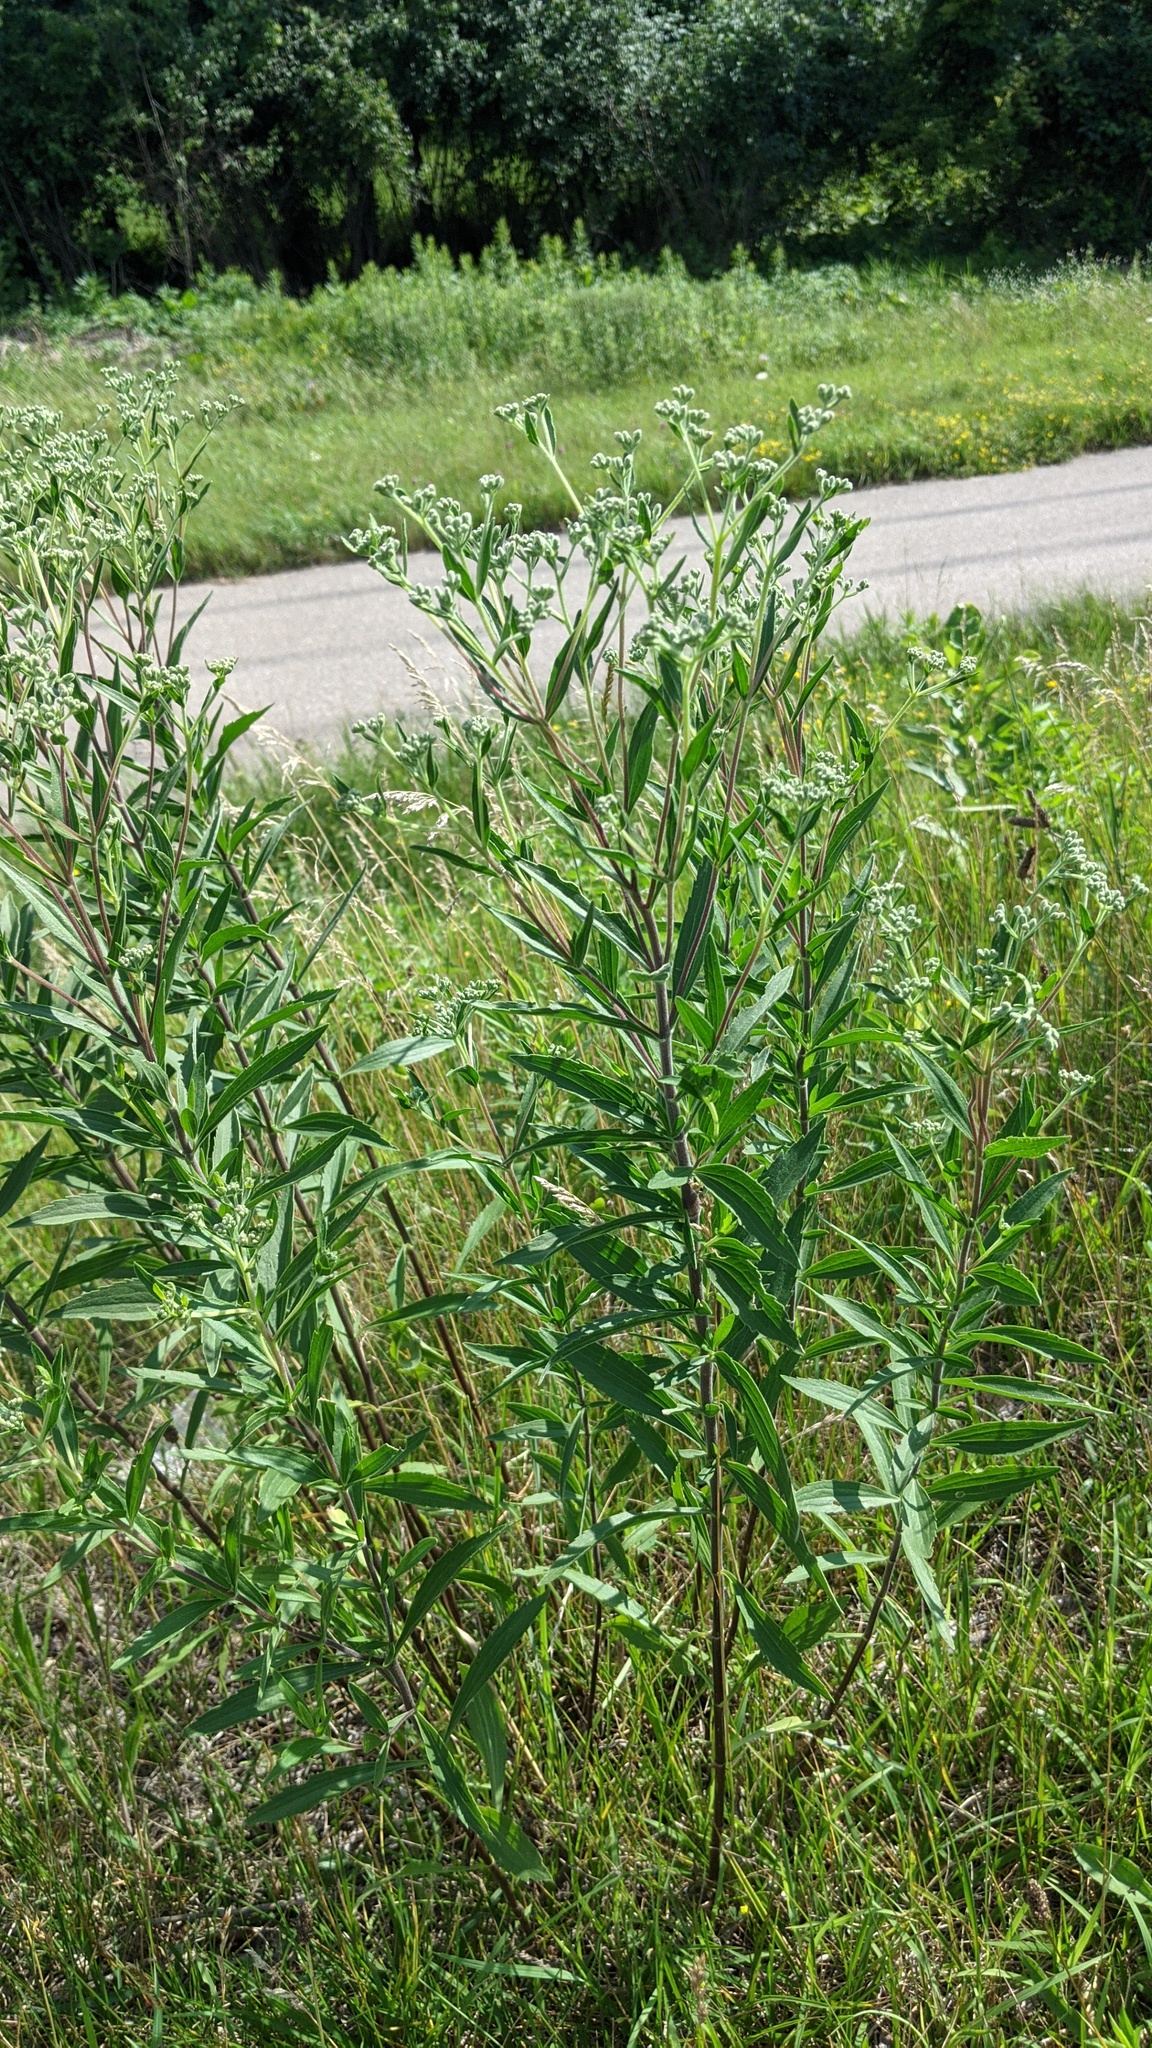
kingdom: Plantae
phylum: Tracheophyta
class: Magnoliopsida
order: Asterales
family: Asteraceae
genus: Eupatorium
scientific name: Eupatorium altissimum
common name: Tall thoroughwort
